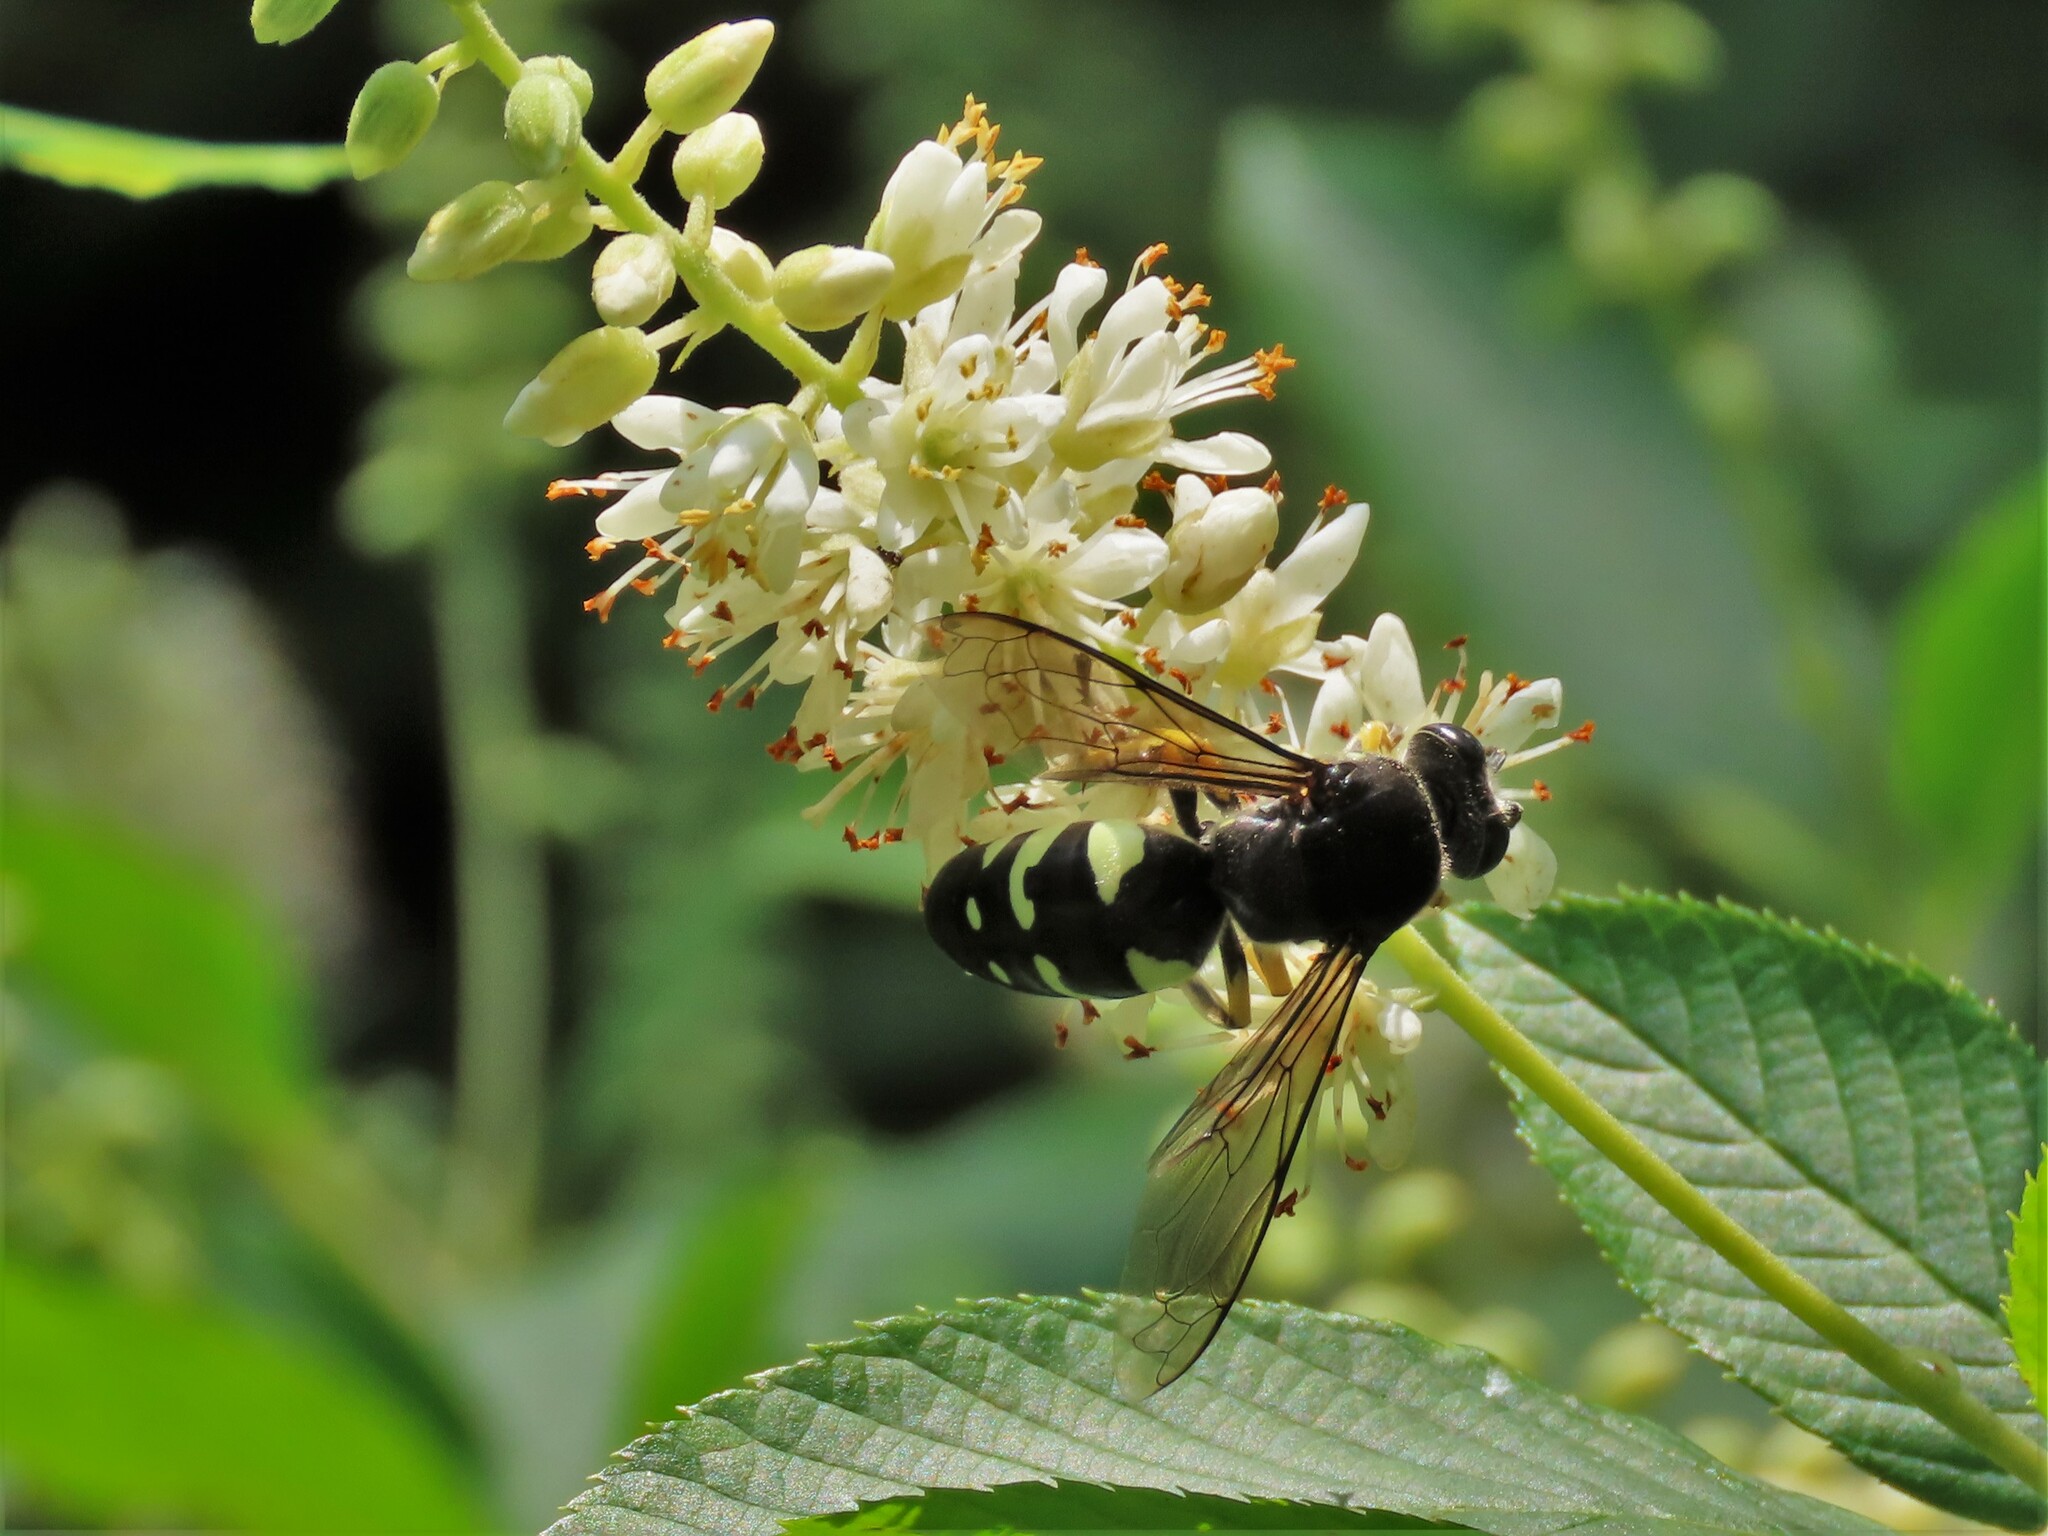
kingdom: Animalia
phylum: Arthropoda
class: Insecta
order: Hymenoptera
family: Crabronidae
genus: Stictia
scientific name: Stictia carolina
